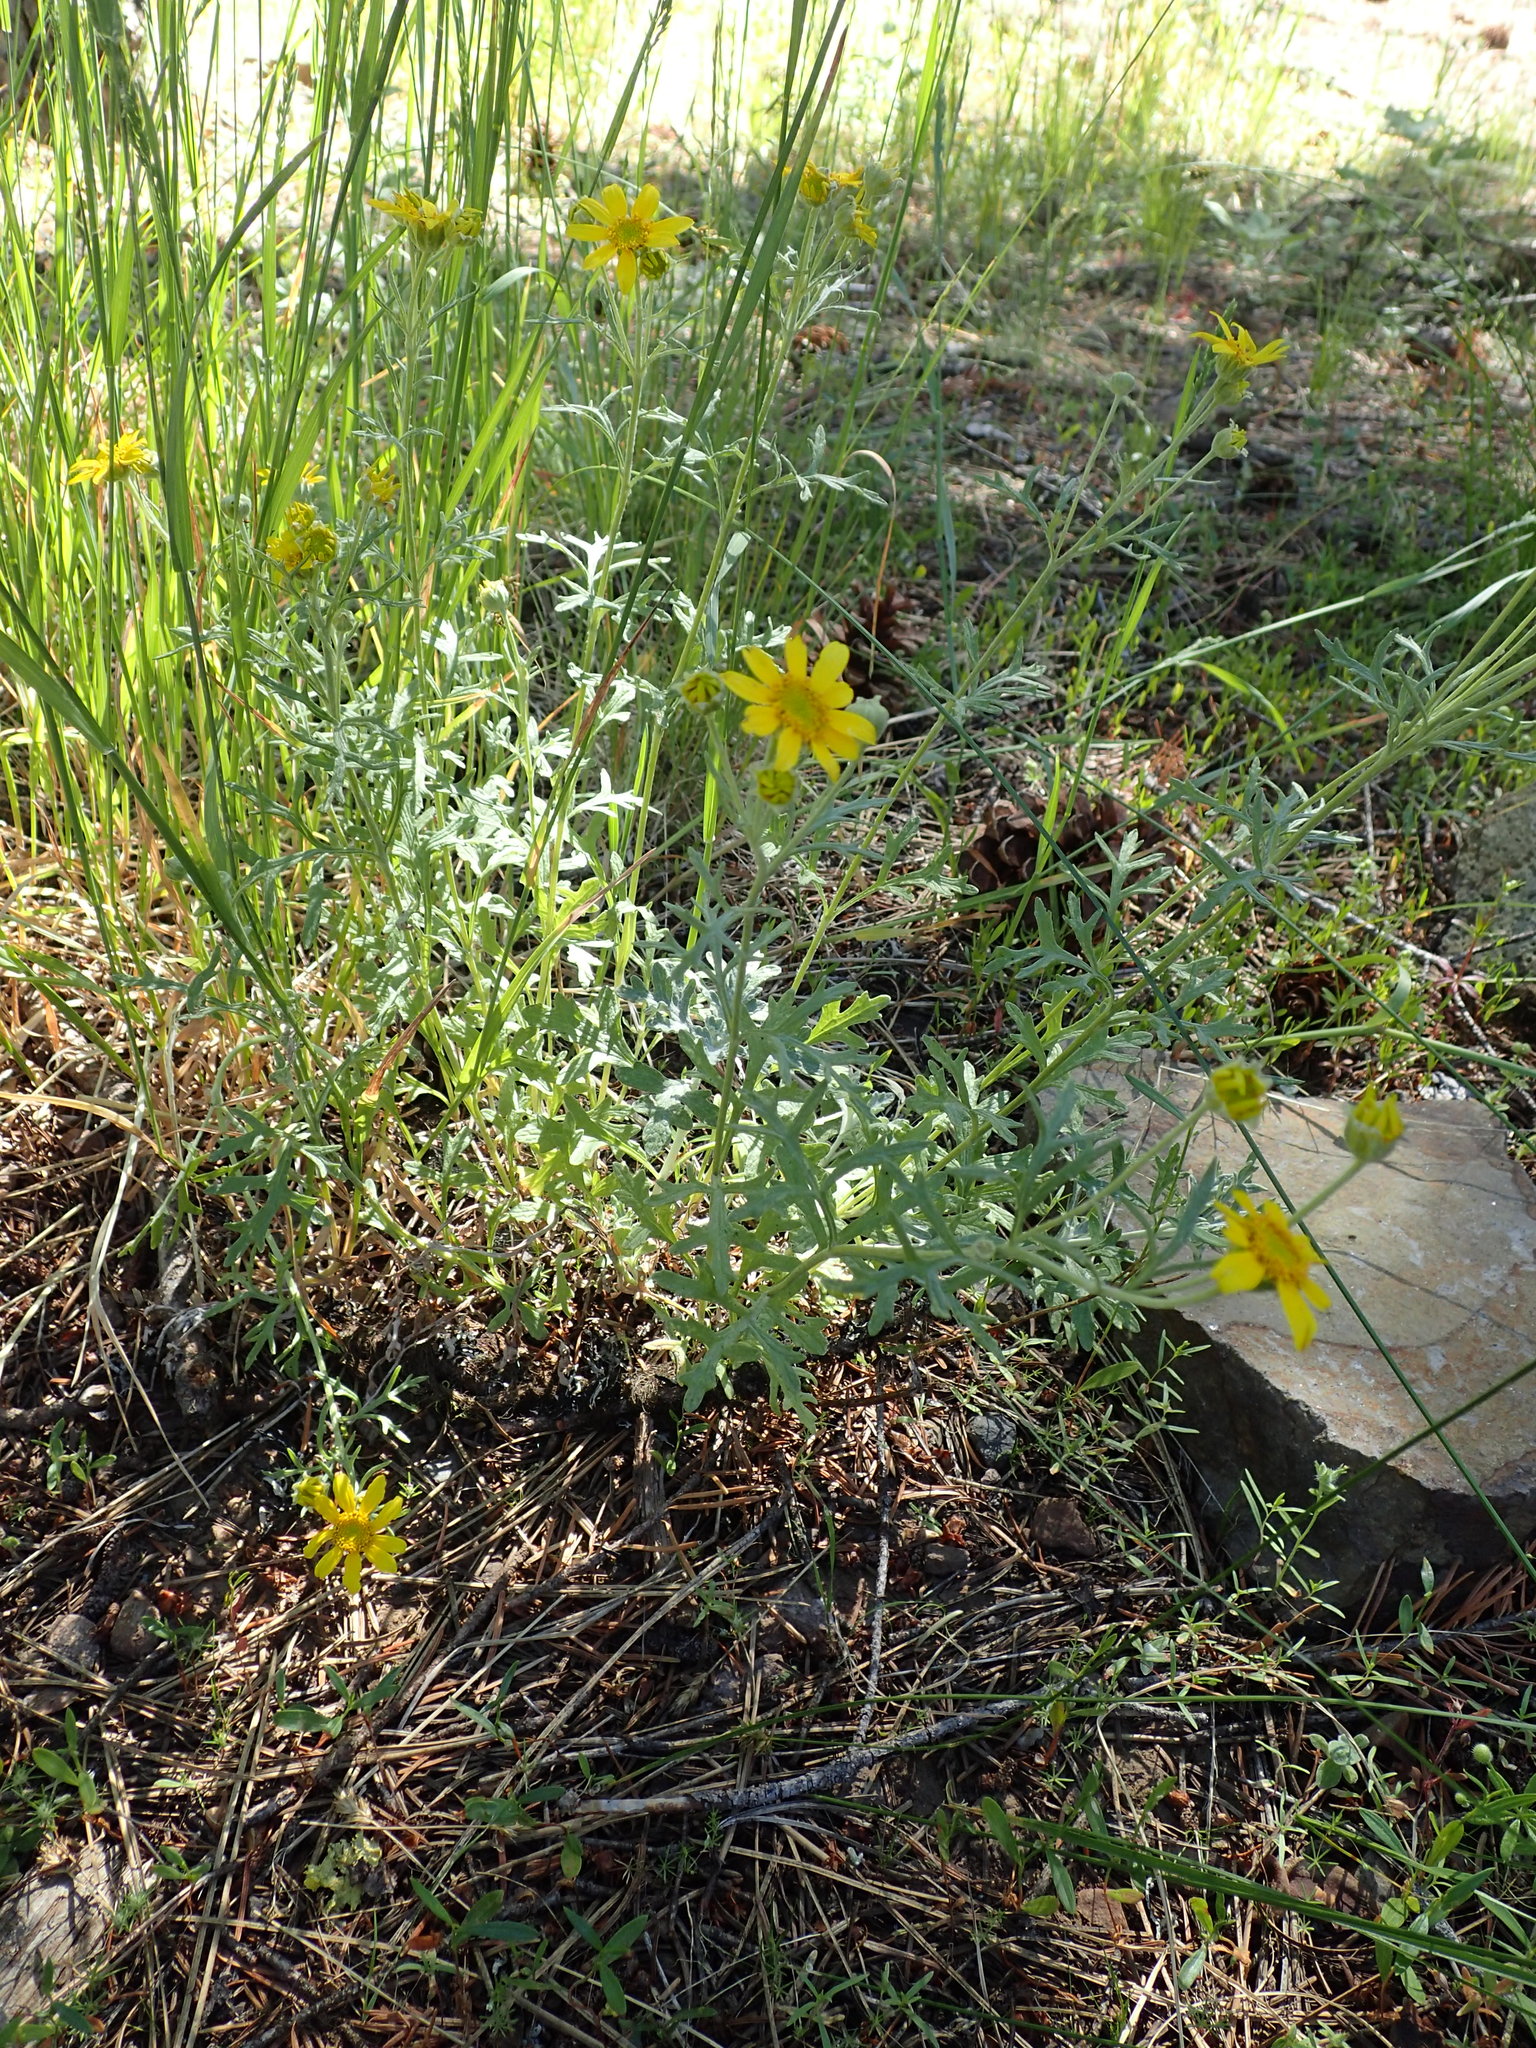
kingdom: Plantae
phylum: Tracheophyta
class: Magnoliopsida
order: Asterales
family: Asteraceae
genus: Eriophyllum
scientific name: Eriophyllum lanatum
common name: Common woolly-sunflower
